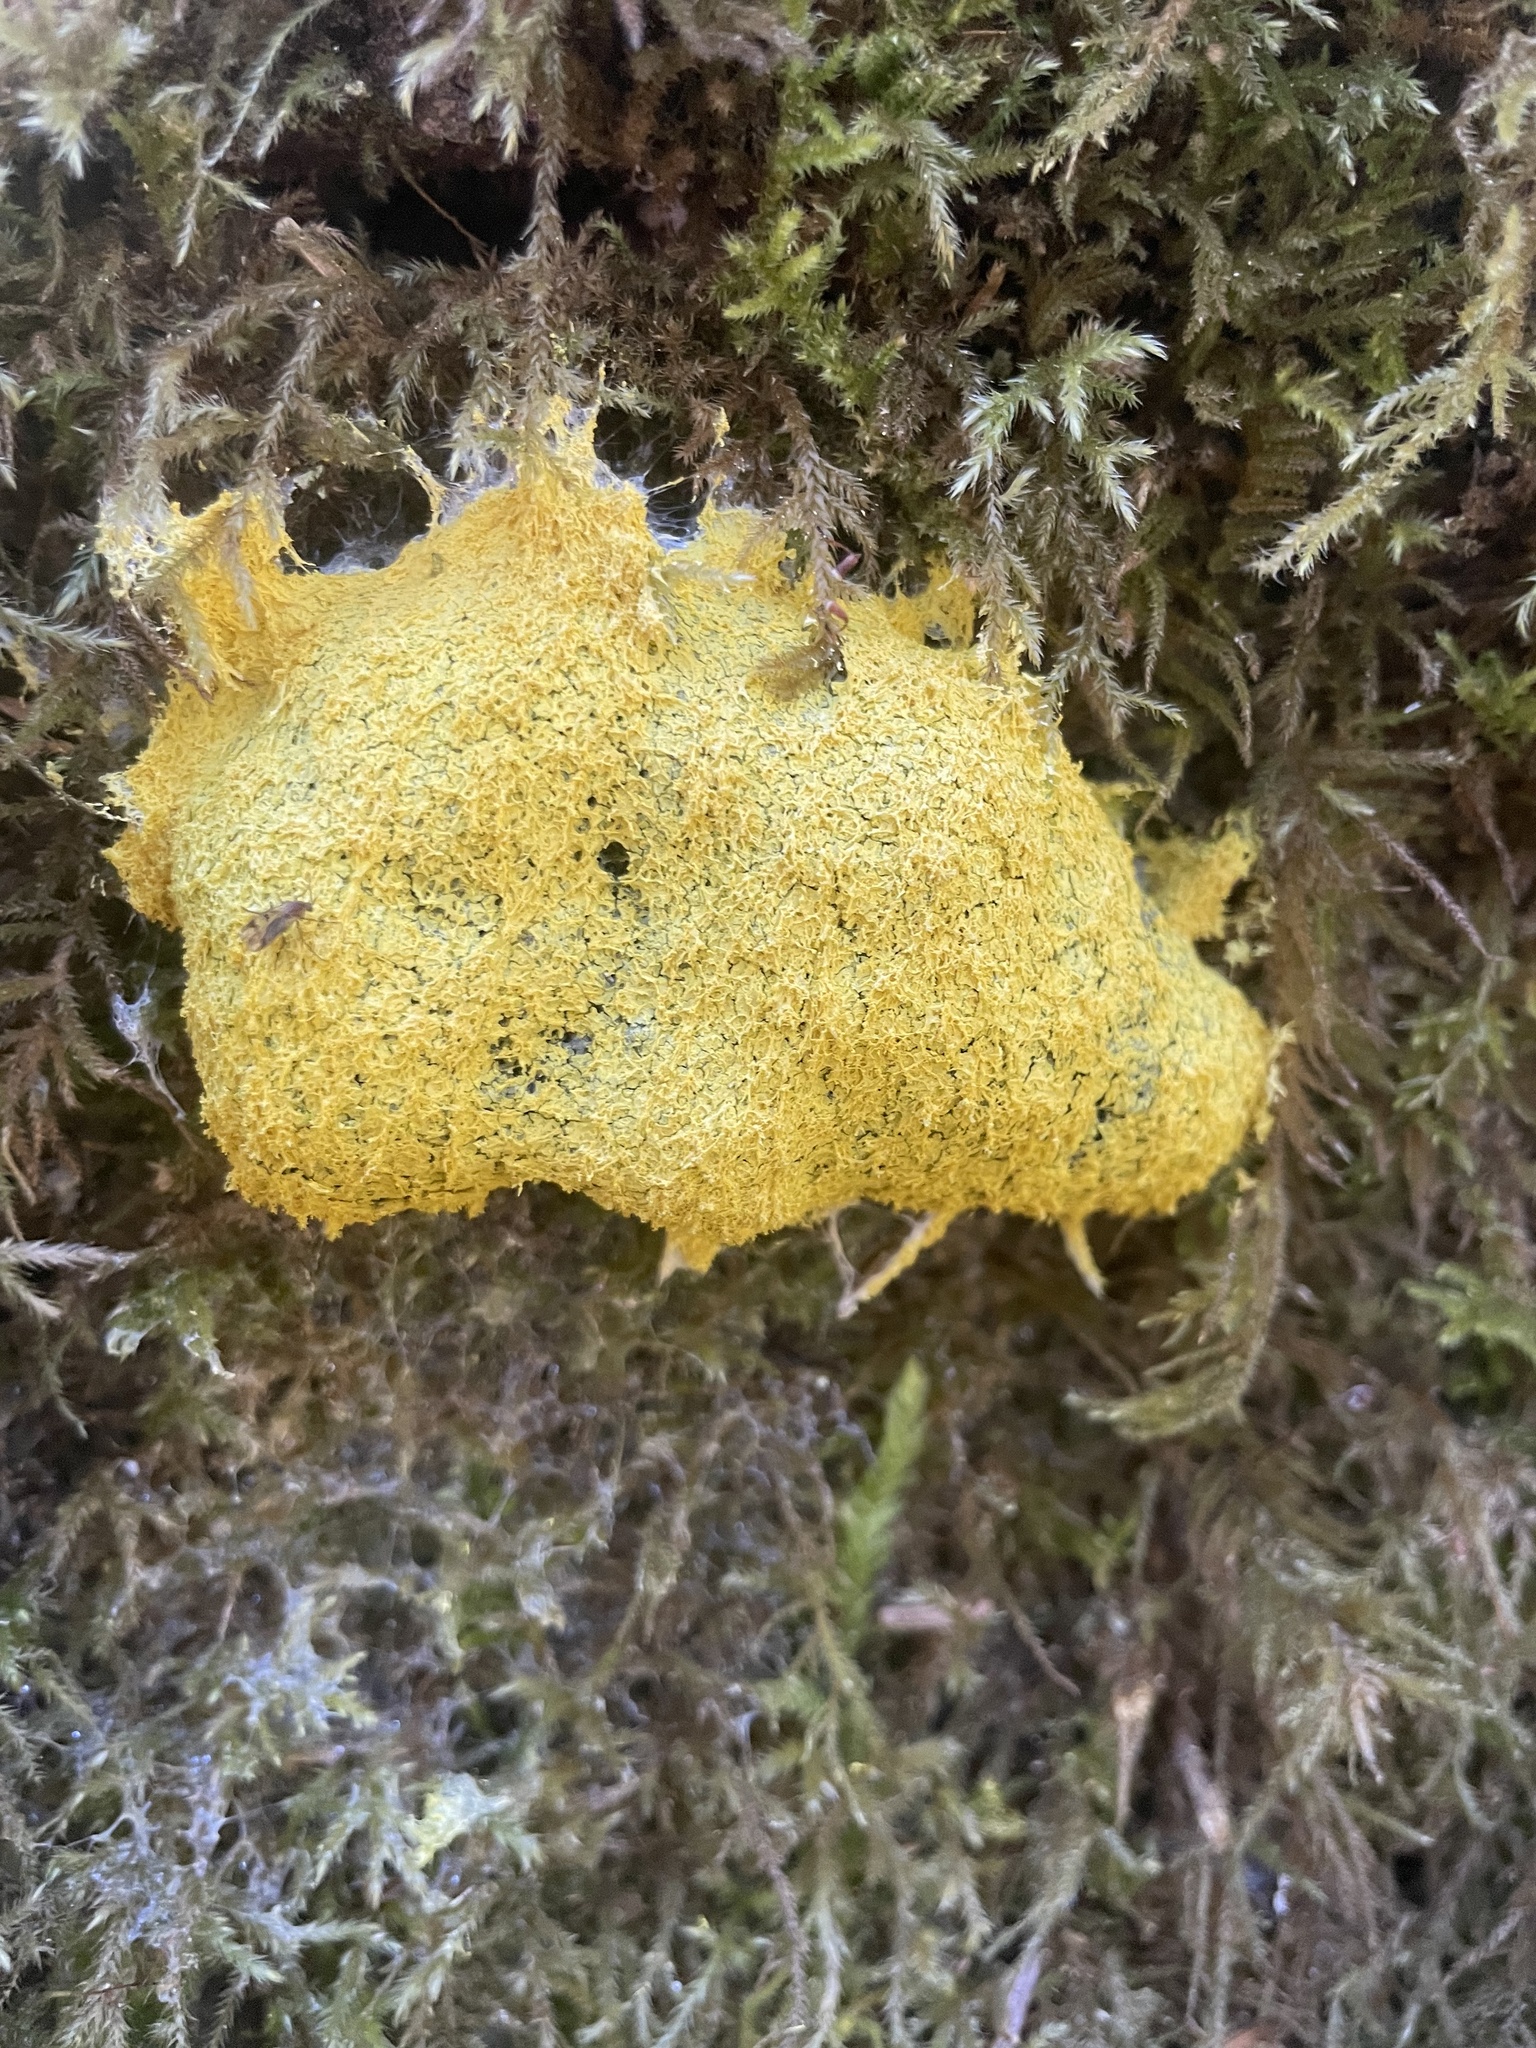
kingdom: Protozoa
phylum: Mycetozoa
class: Myxomycetes
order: Physarales
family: Physaraceae
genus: Fuligo
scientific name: Fuligo septica
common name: Dog vomit slime mold
